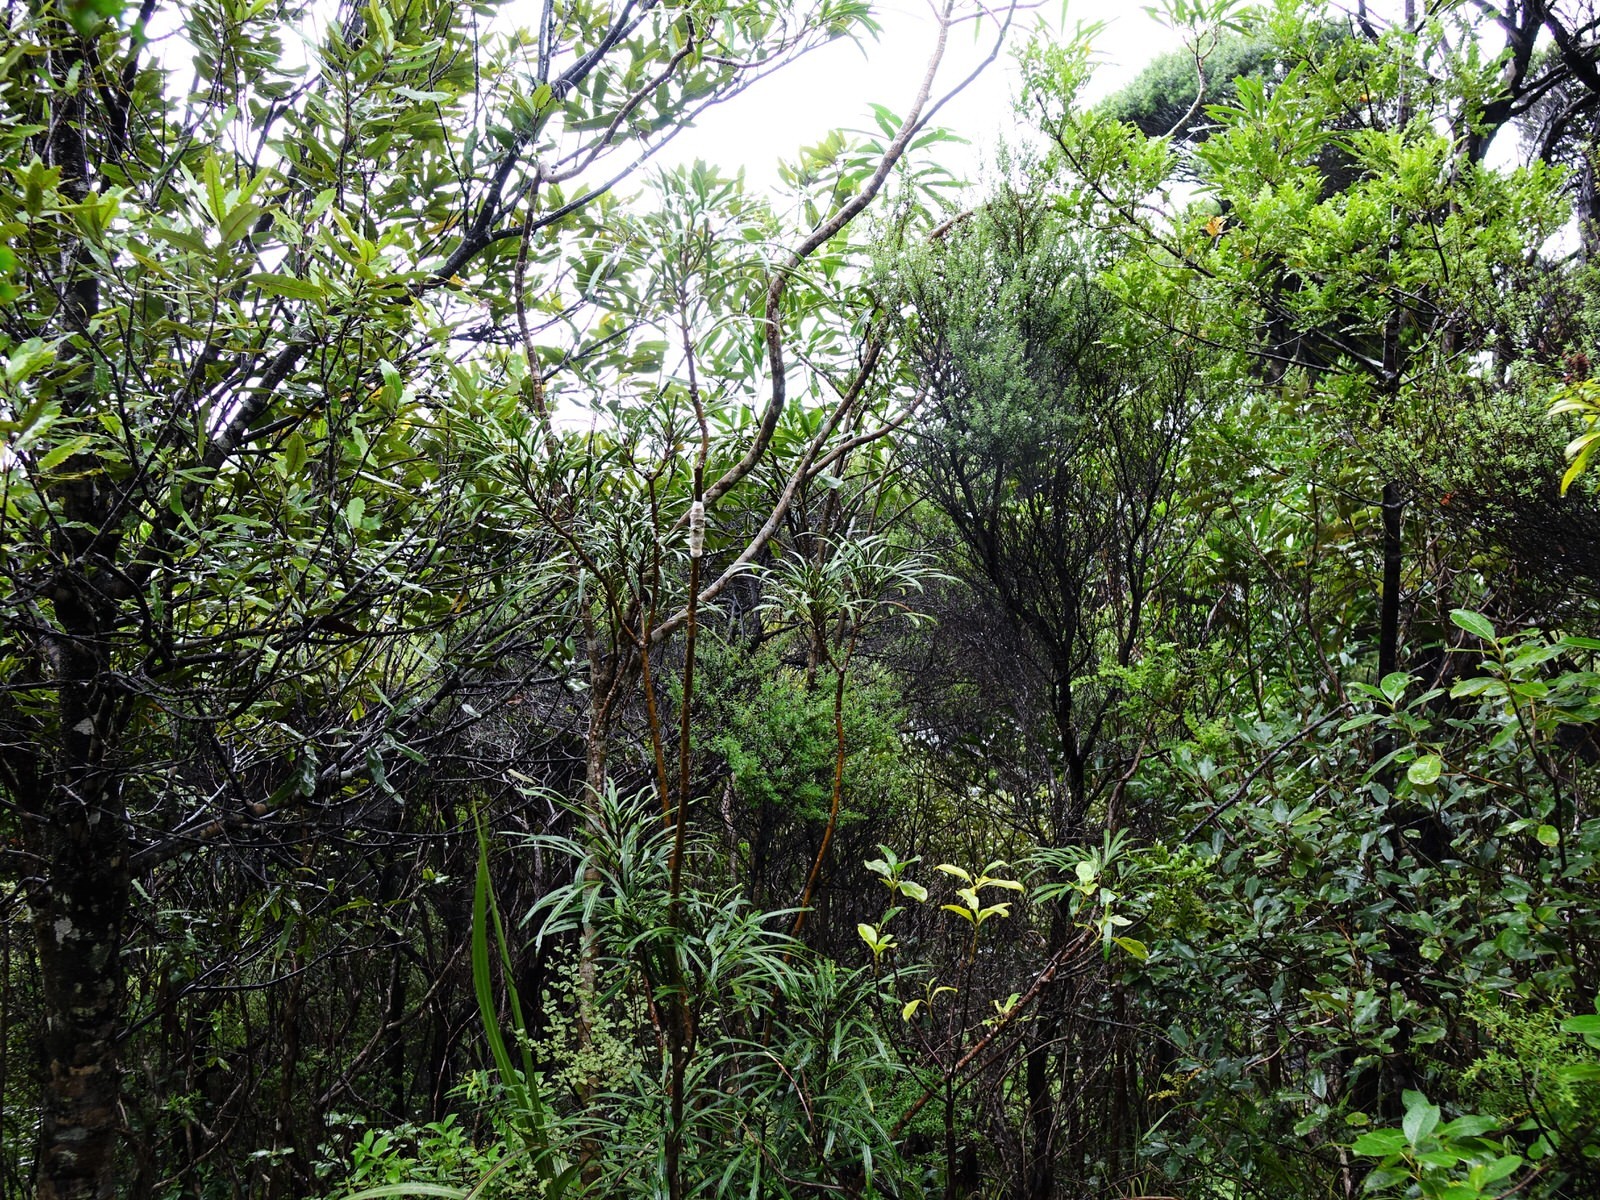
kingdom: Fungi
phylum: Basidiomycota
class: Pucciniomycetes
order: Septobasidiales
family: Septobasidiaceae
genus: Septobasidium
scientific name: Septobasidium simmondsii
